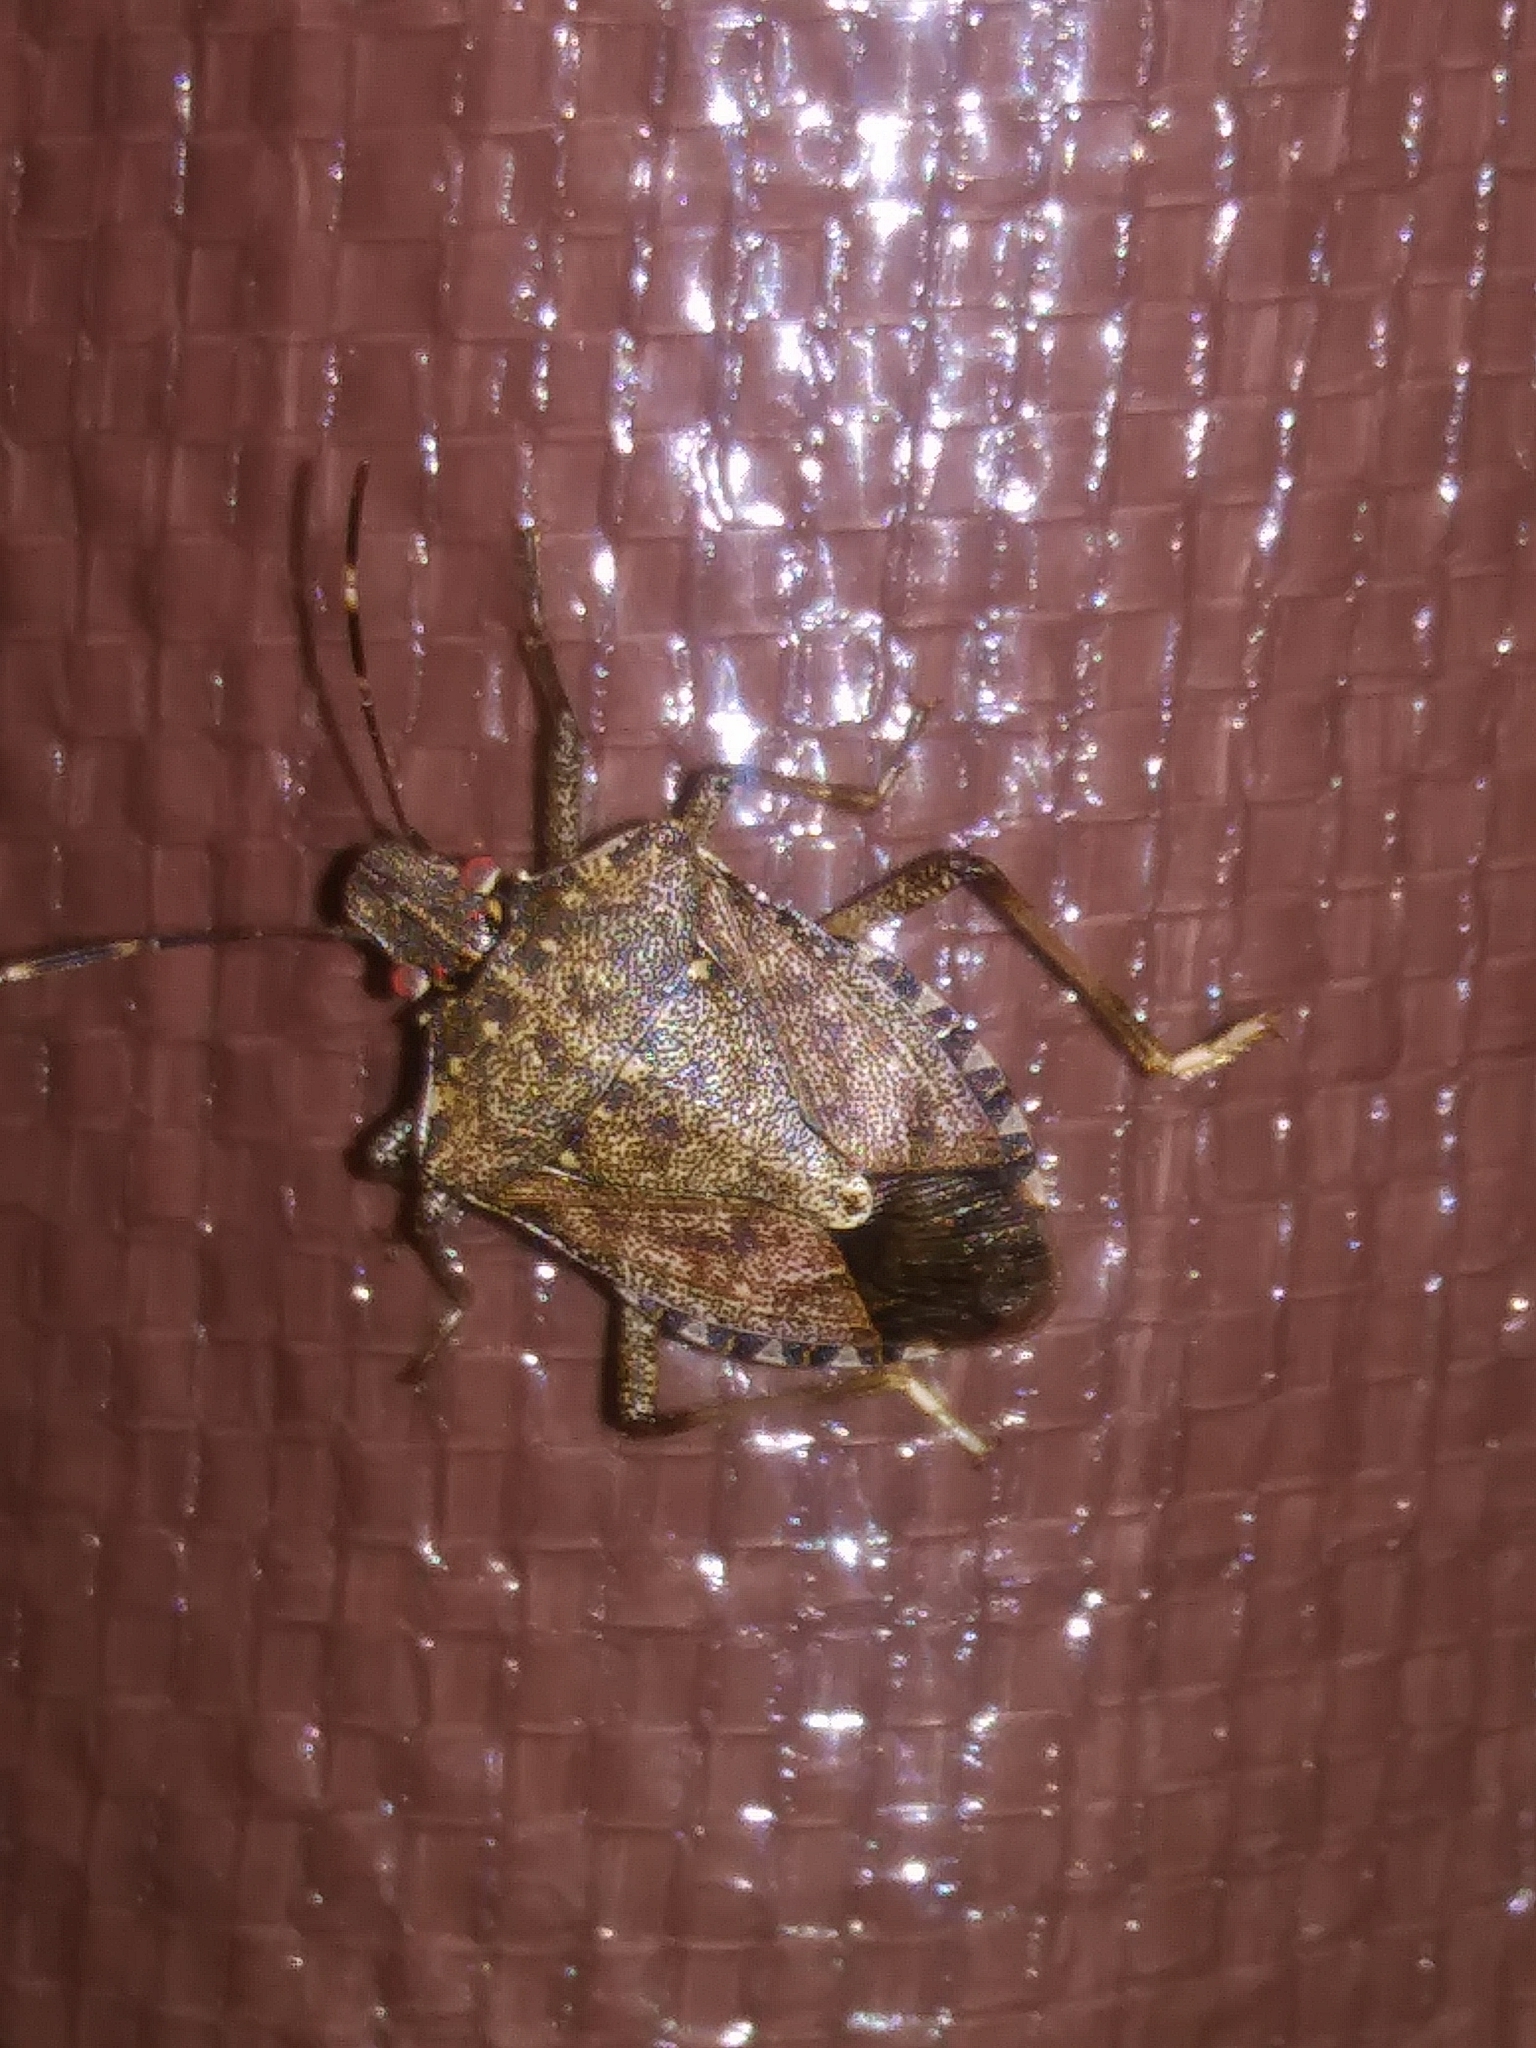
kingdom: Animalia
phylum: Arthropoda
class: Insecta
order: Hemiptera
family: Pentatomidae
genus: Halyomorpha
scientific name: Halyomorpha halys
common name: Brown marmorated stink bug
